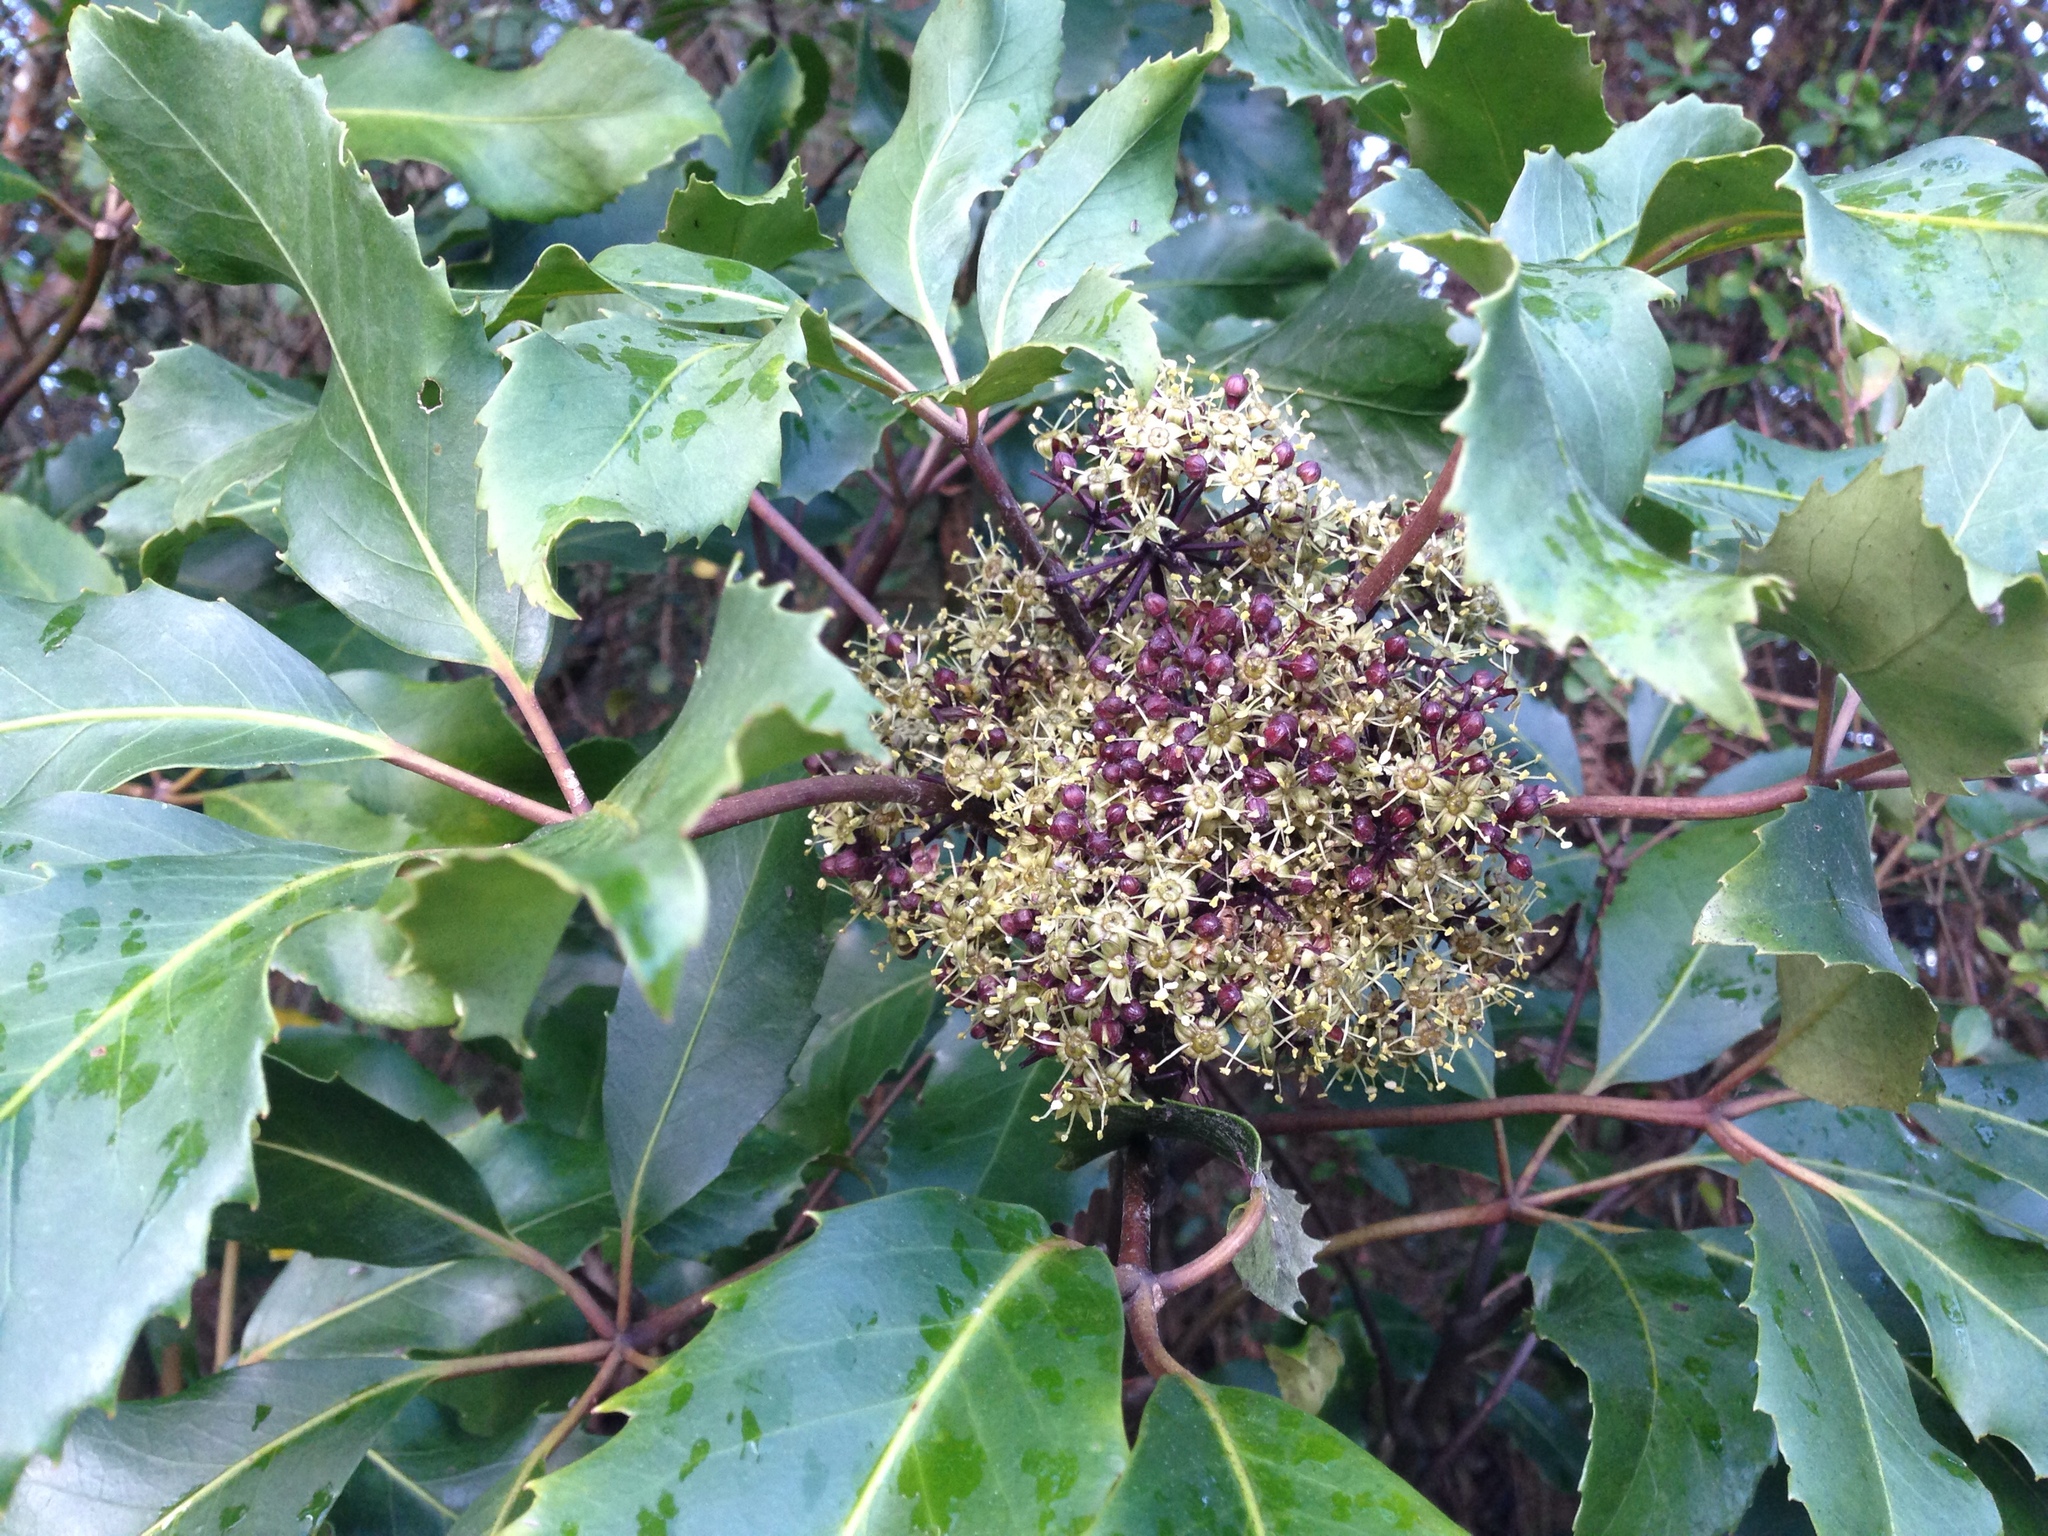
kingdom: Plantae
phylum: Tracheophyta
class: Magnoliopsida
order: Apiales
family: Araliaceae
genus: Neopanax
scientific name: Neopanax arboreus
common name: Five-fingers
